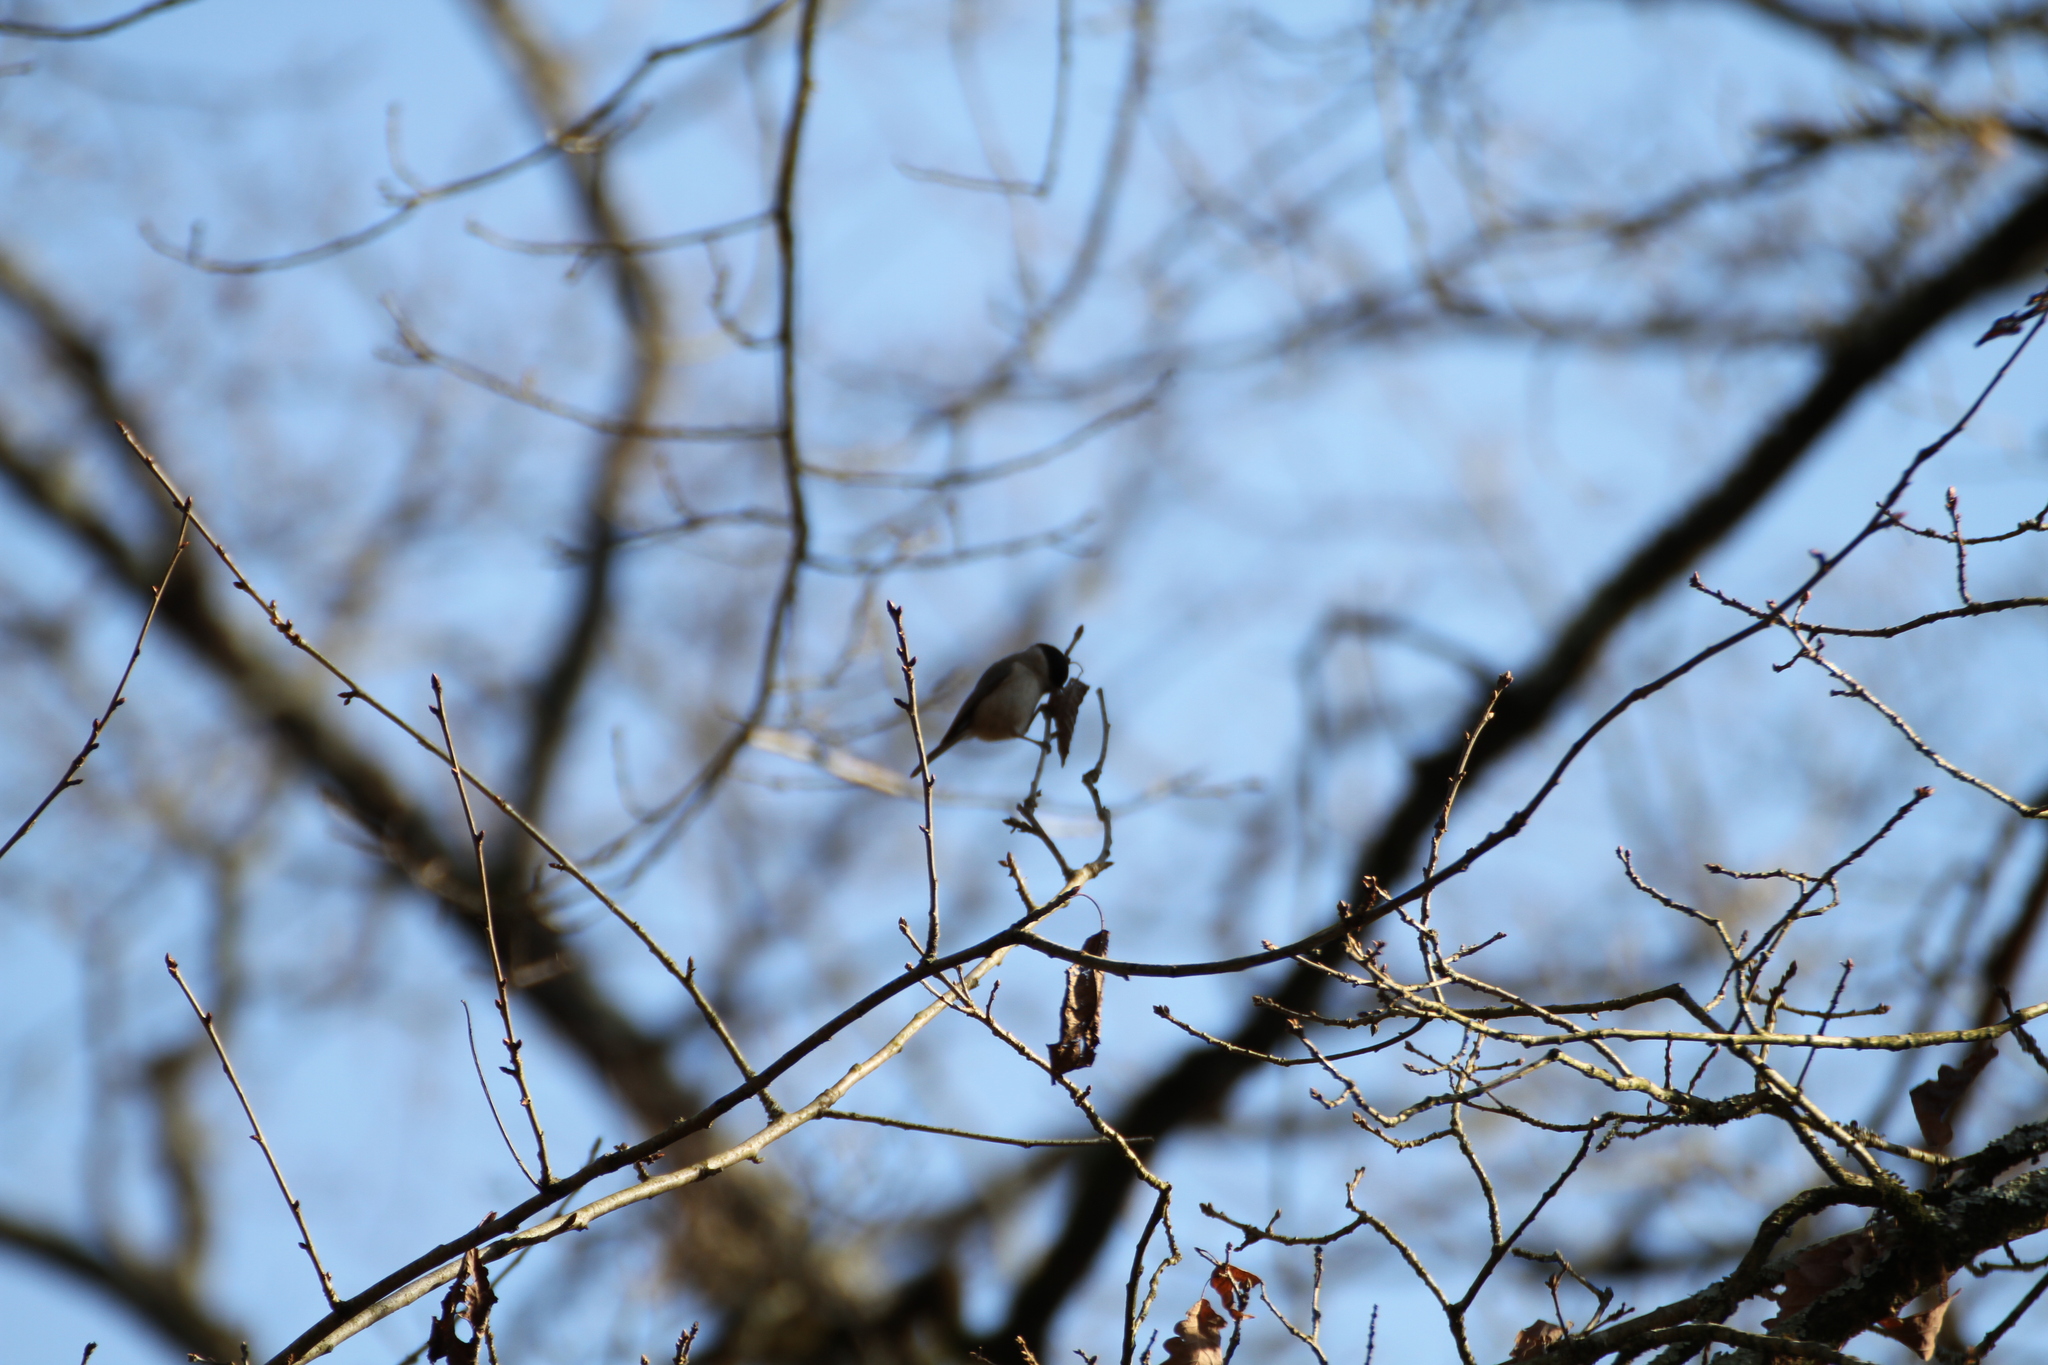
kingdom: Animalia
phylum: Chordata
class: Aves
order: Passeriformes
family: Paridae
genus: Poecile
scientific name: Poecile palustris
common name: Marsh tit
